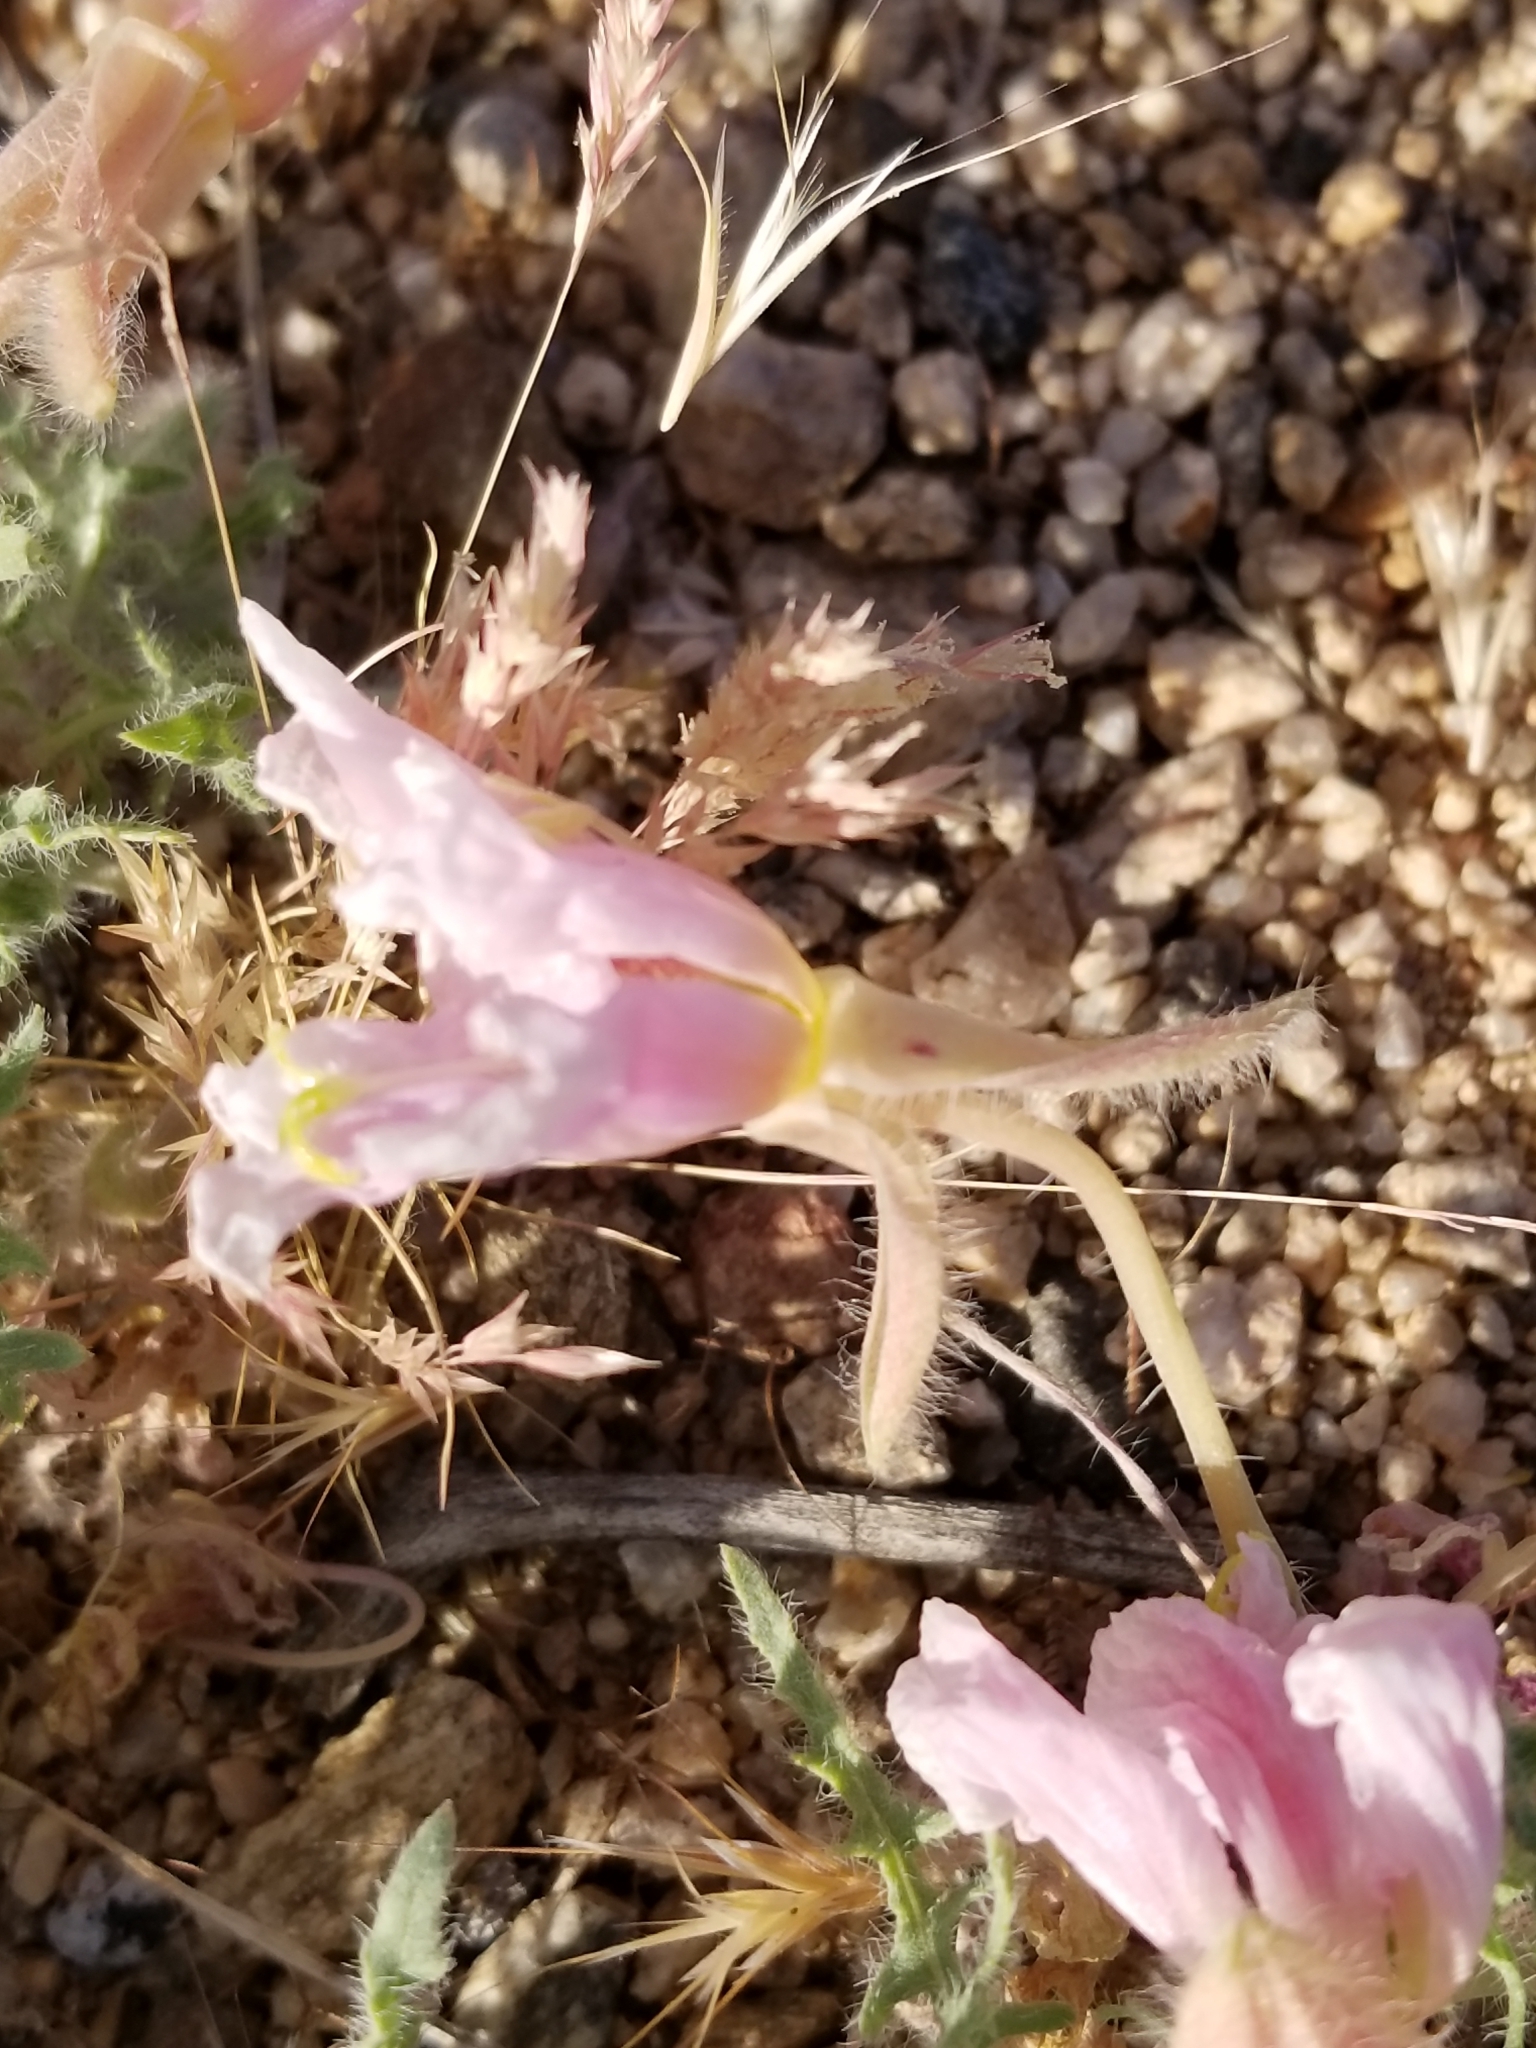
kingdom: Plantae
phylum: Tracheophyta
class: Magnoliopsida
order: Myrtales
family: Onagraceae
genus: Oenothera
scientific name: Oenothera californica
